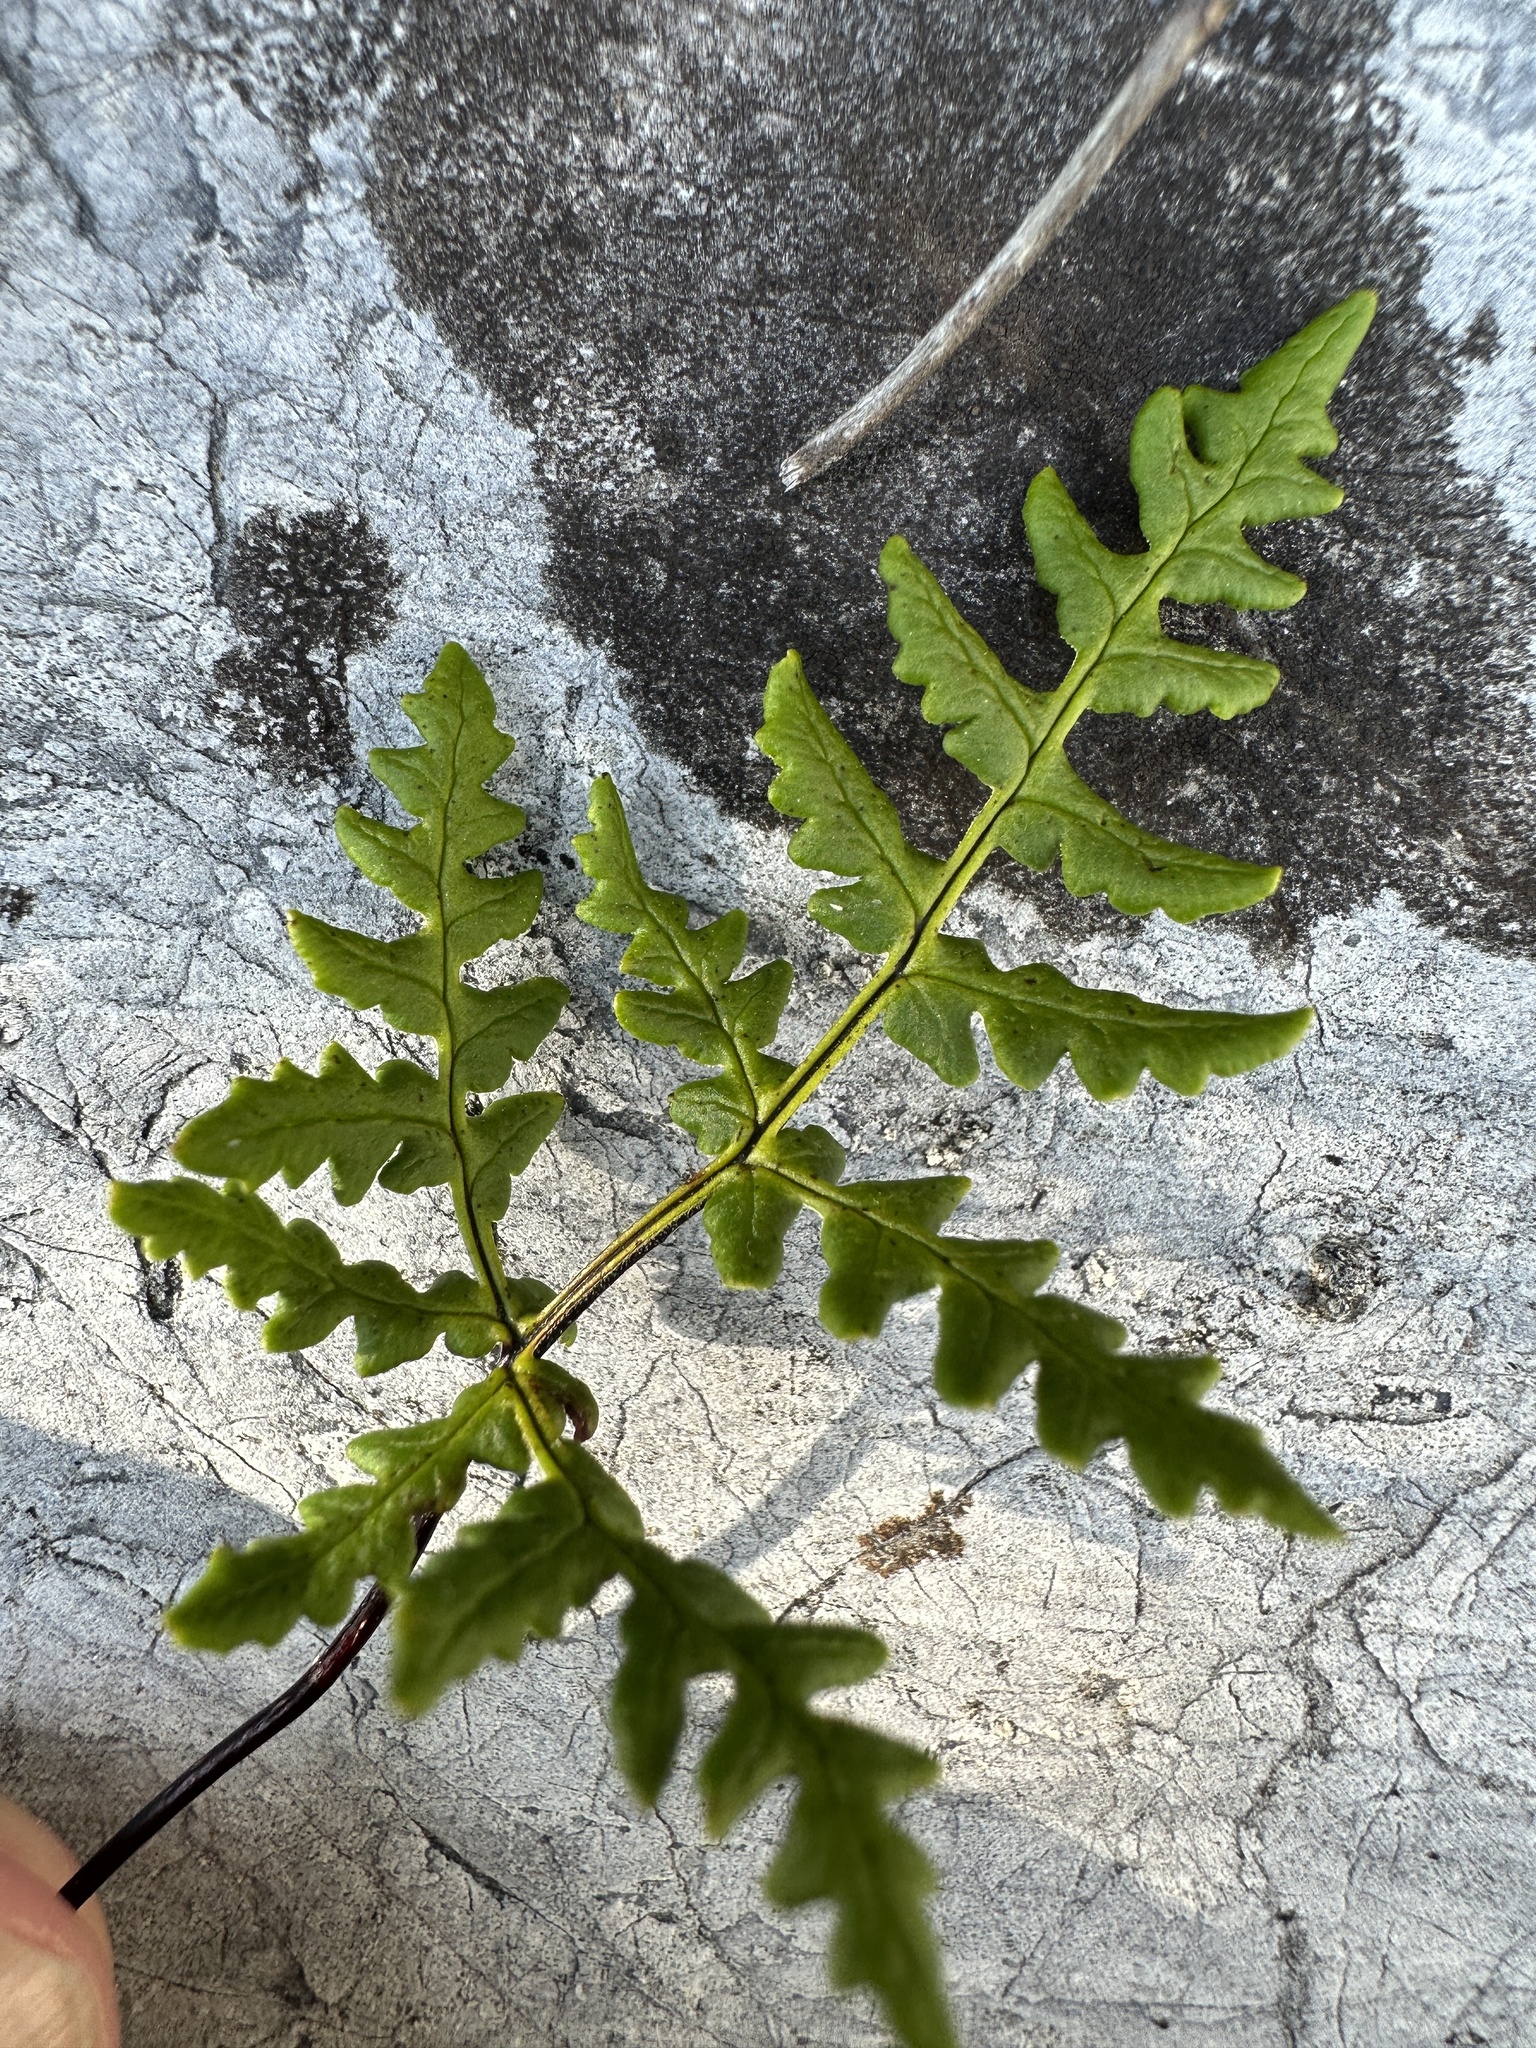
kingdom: Plantae
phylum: Tracheophyta
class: Polypodiopsida
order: Polypodiales
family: Pteridaceae
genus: Pentagramma
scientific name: Pentagramma triangularis
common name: Gold fern
